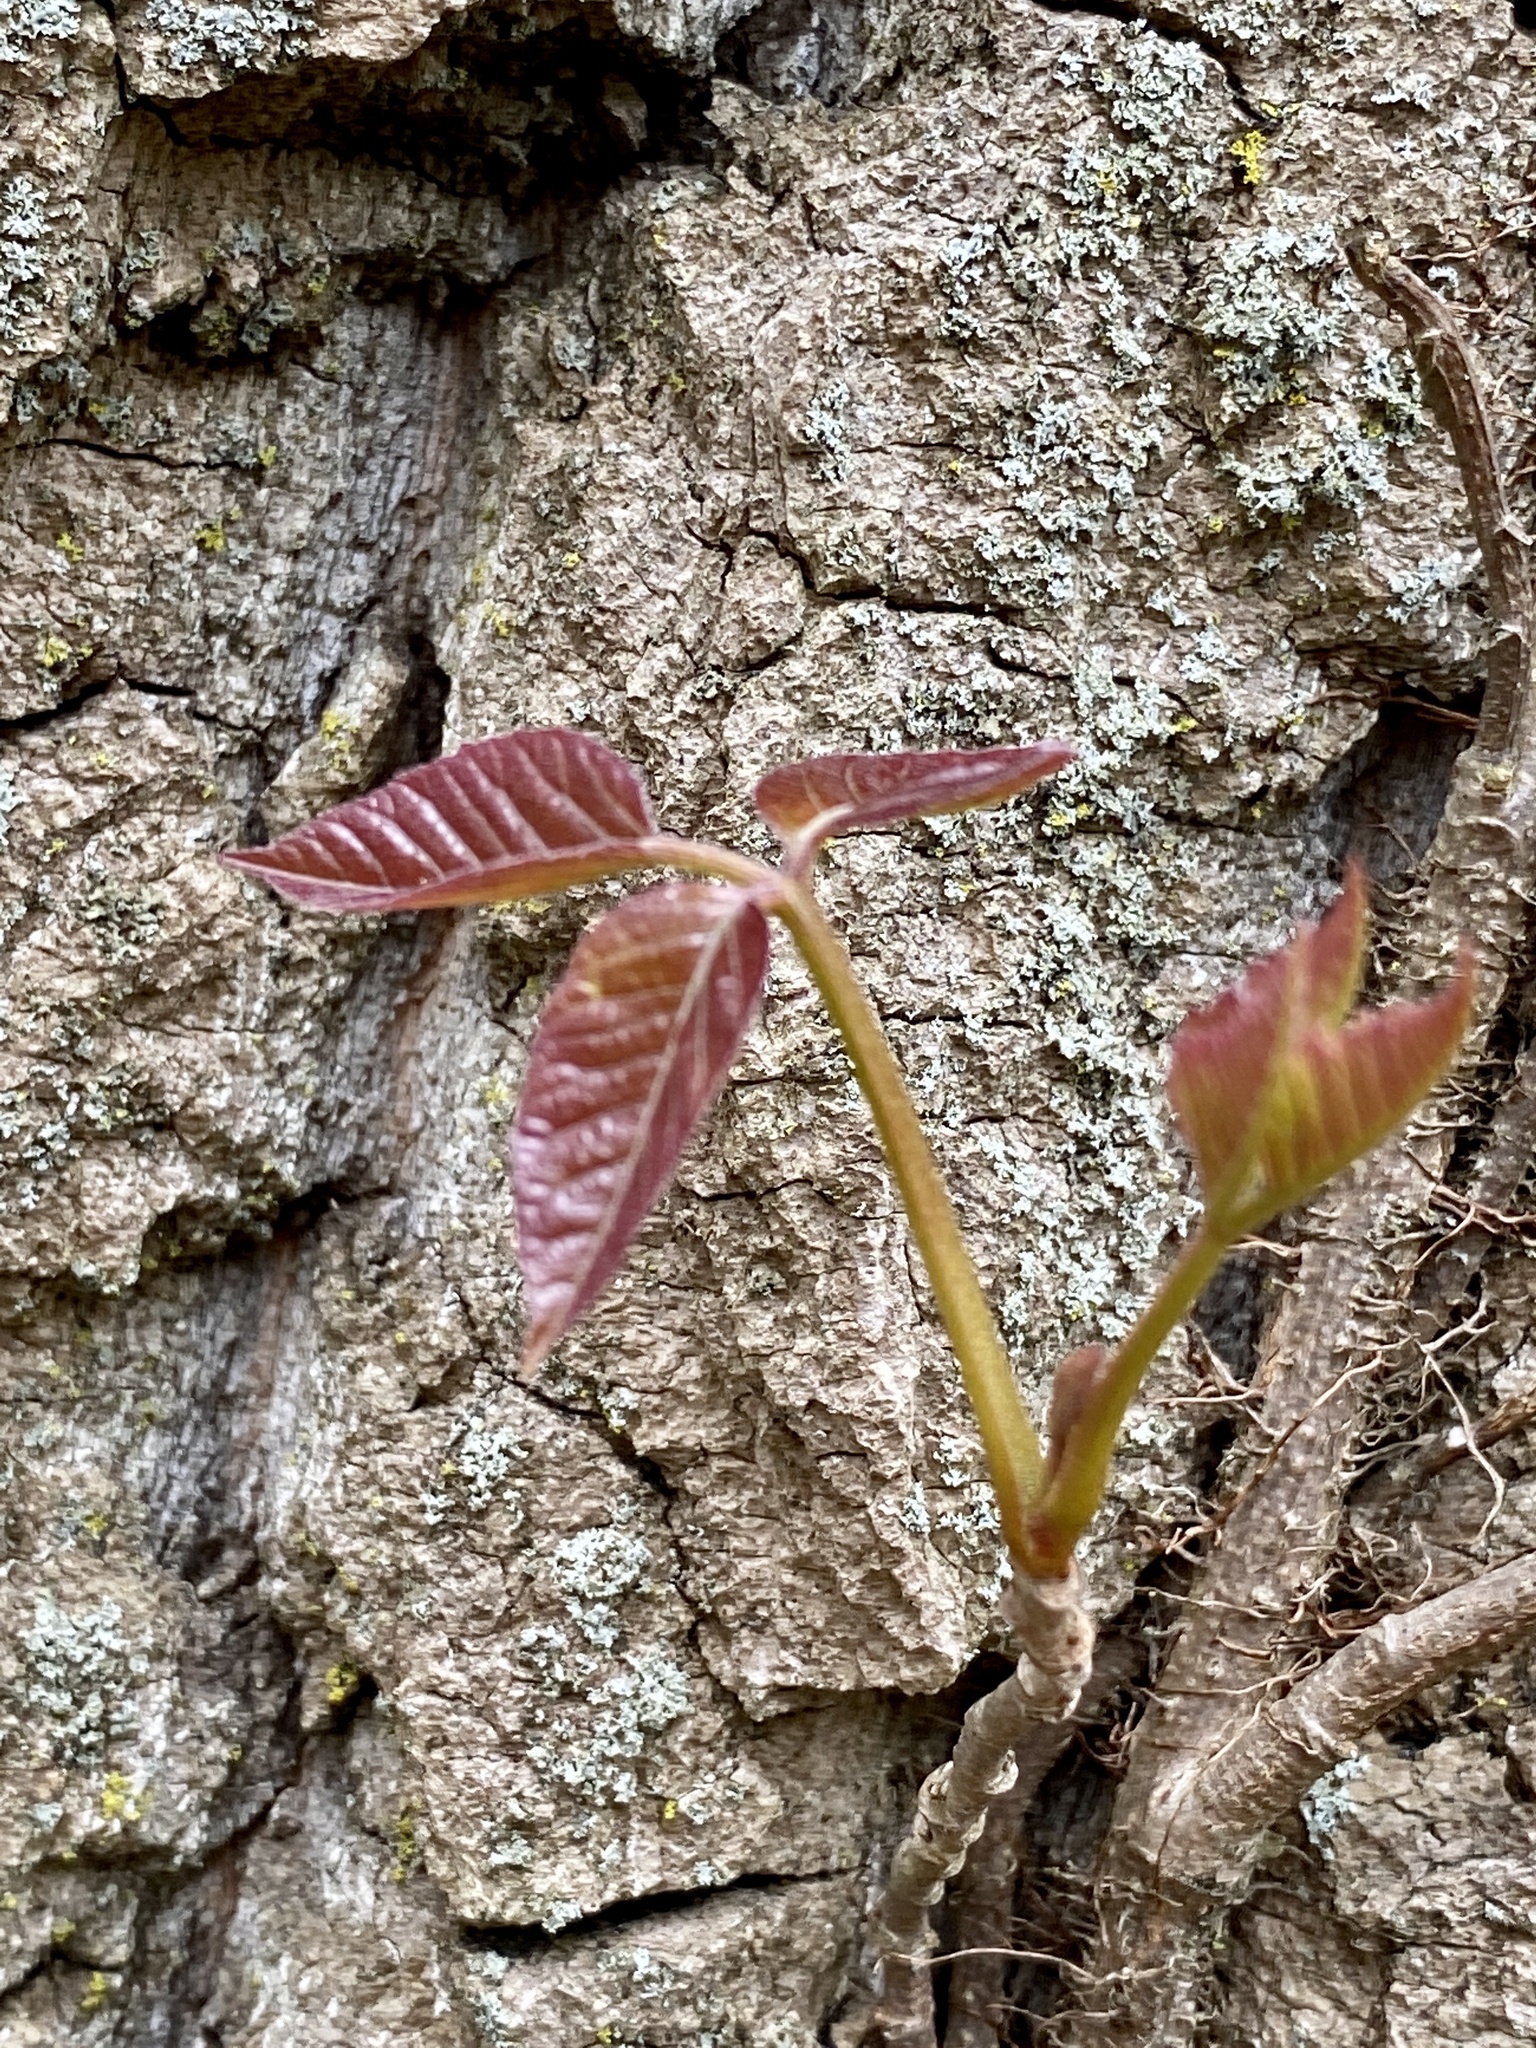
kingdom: Plantae
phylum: Tracheophyta
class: Magnoliopsida
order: Sapindales
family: Anacardiaceae
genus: Toxicodendron
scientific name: Toxicodendron radicans
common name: Poison ivy
